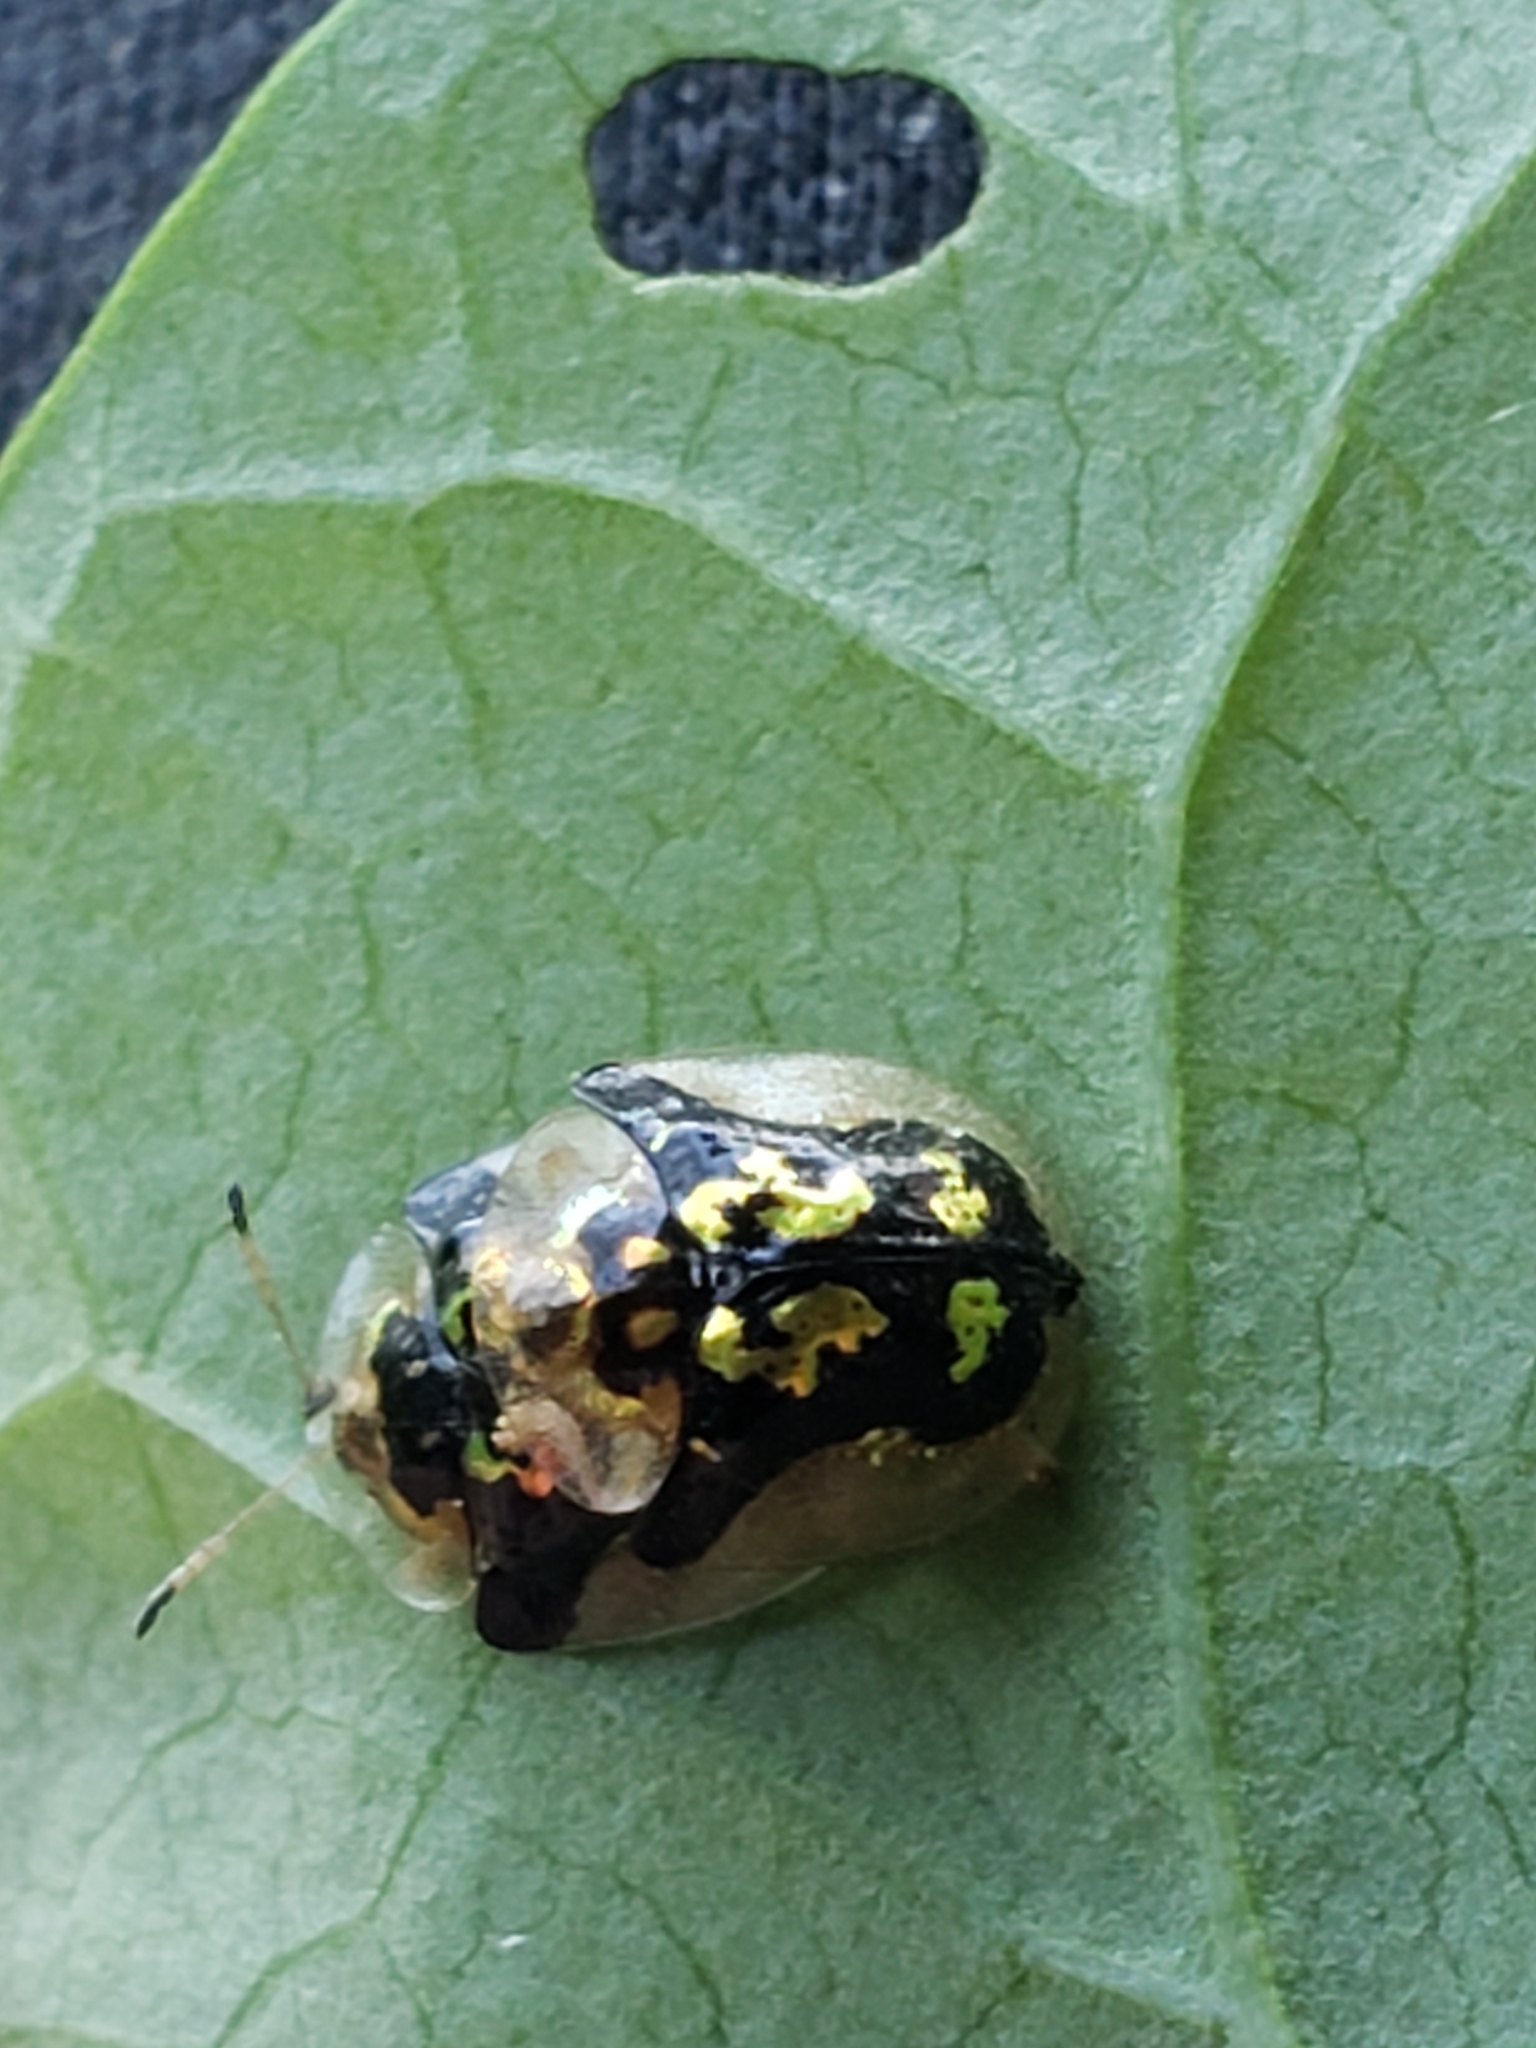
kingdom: Animalia
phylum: Arthropoda
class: Insecta
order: Coleoptera
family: Chrysomelidae
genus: Deloyala
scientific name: Deloyala guttata
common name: Mottled tortoise beetle
